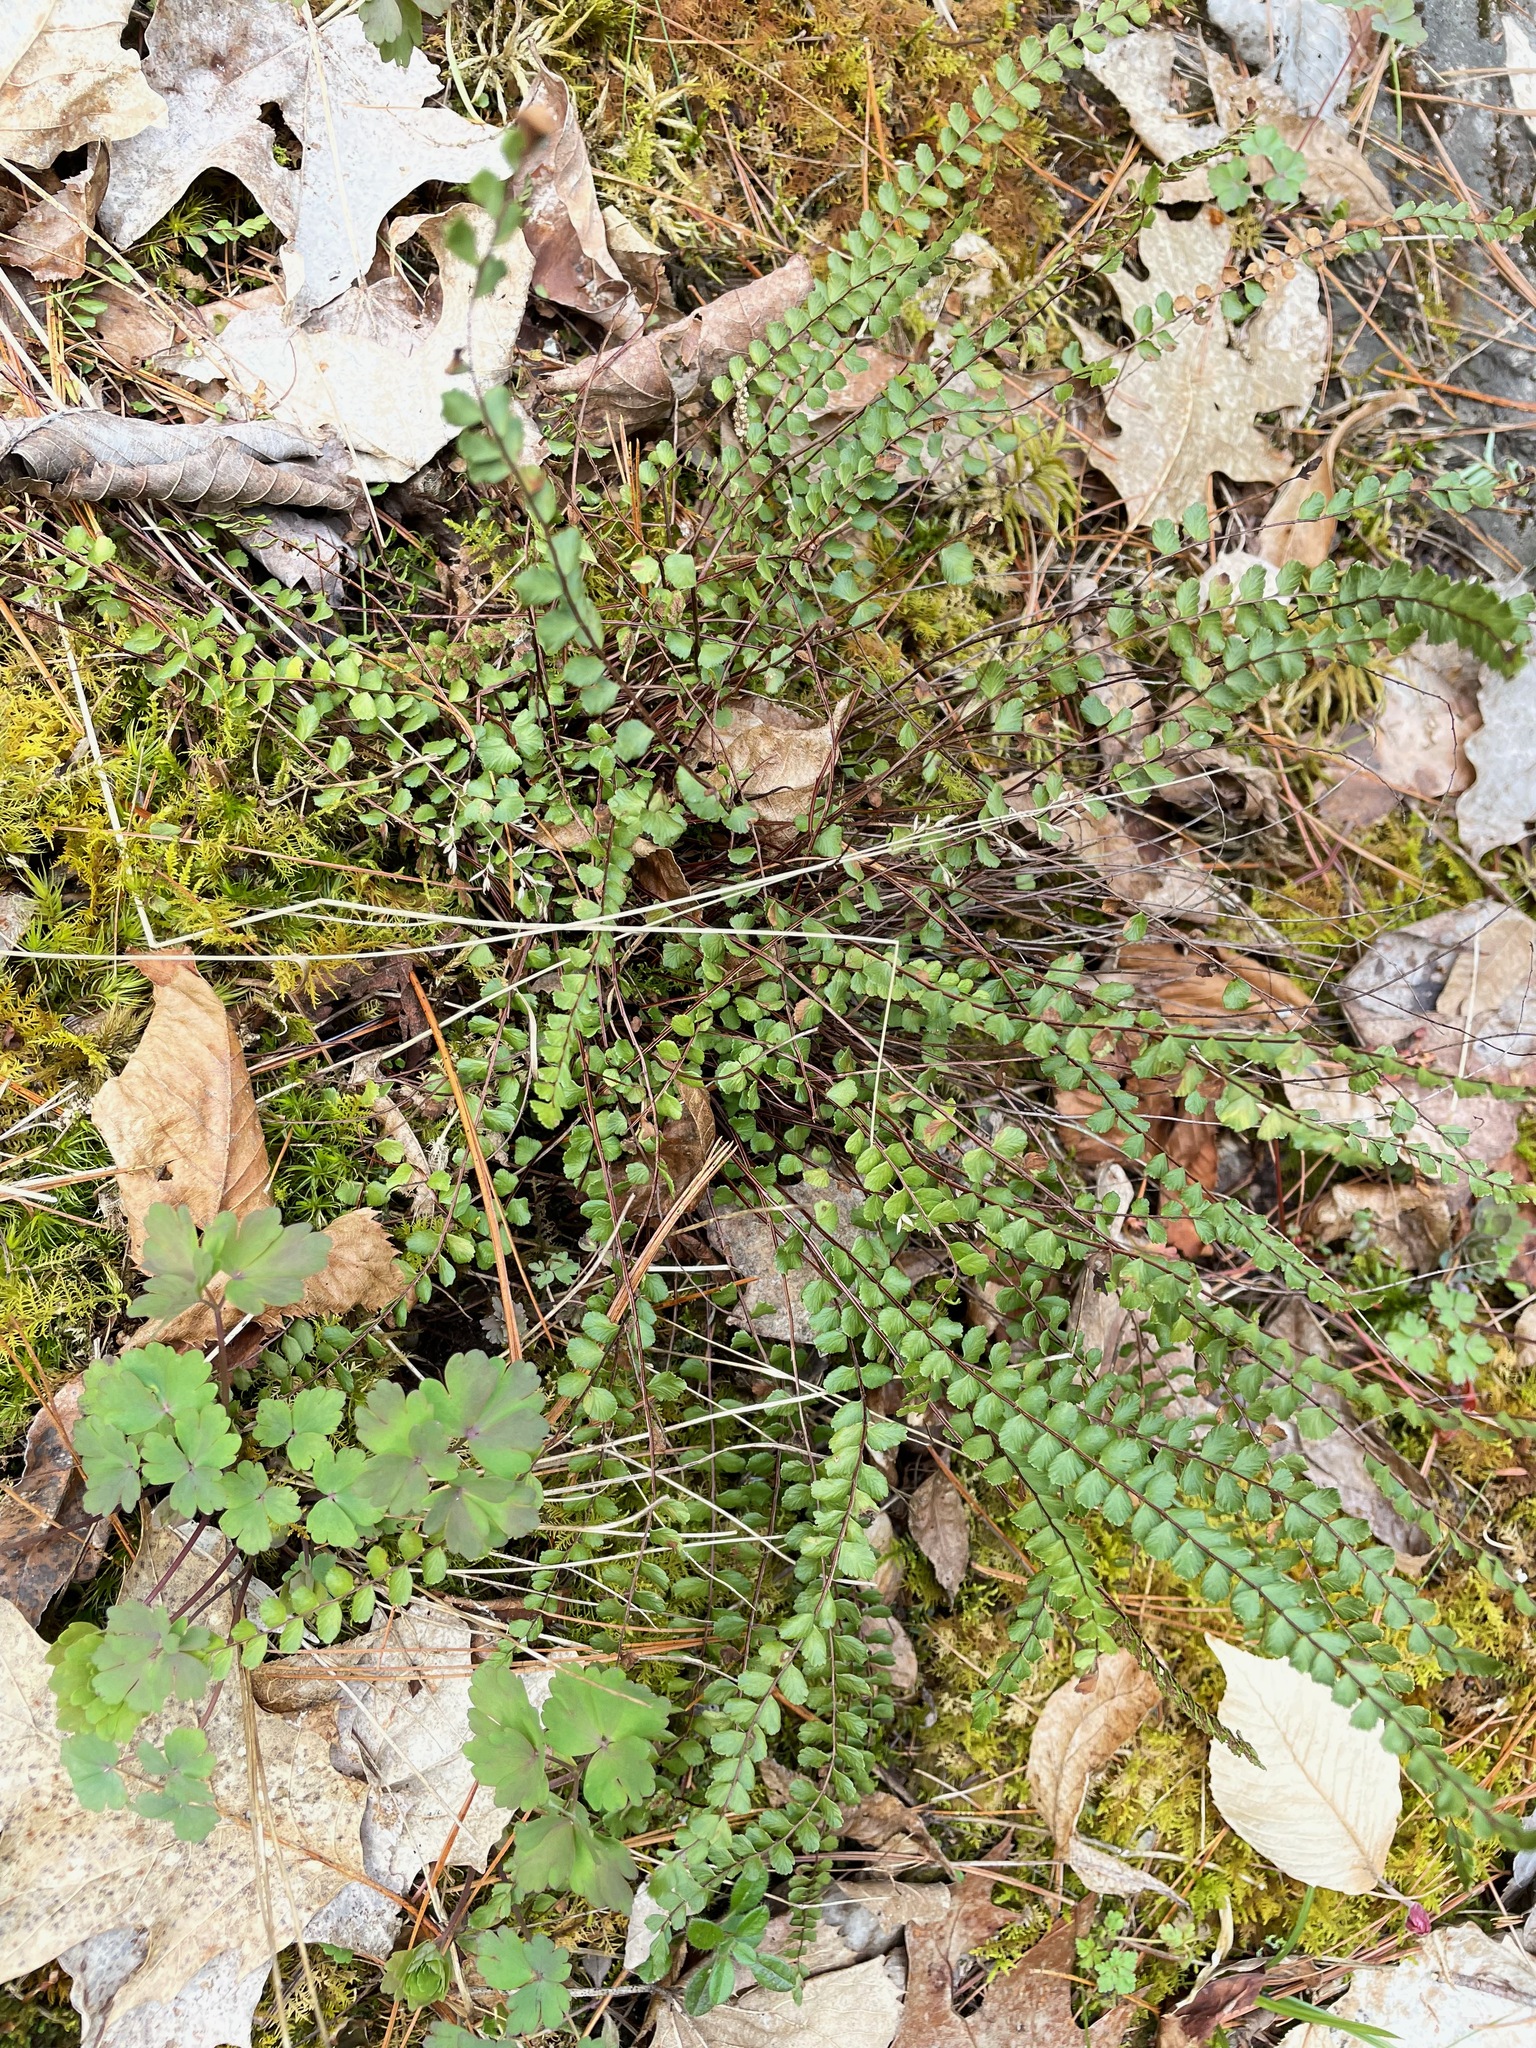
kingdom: Plantae
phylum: Tracheophyta
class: Polypodiopsida
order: Polypodiales
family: Aspleniaceae
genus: Asplenium
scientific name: Asplenium trichomanes
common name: Maidenhair spleenwort
